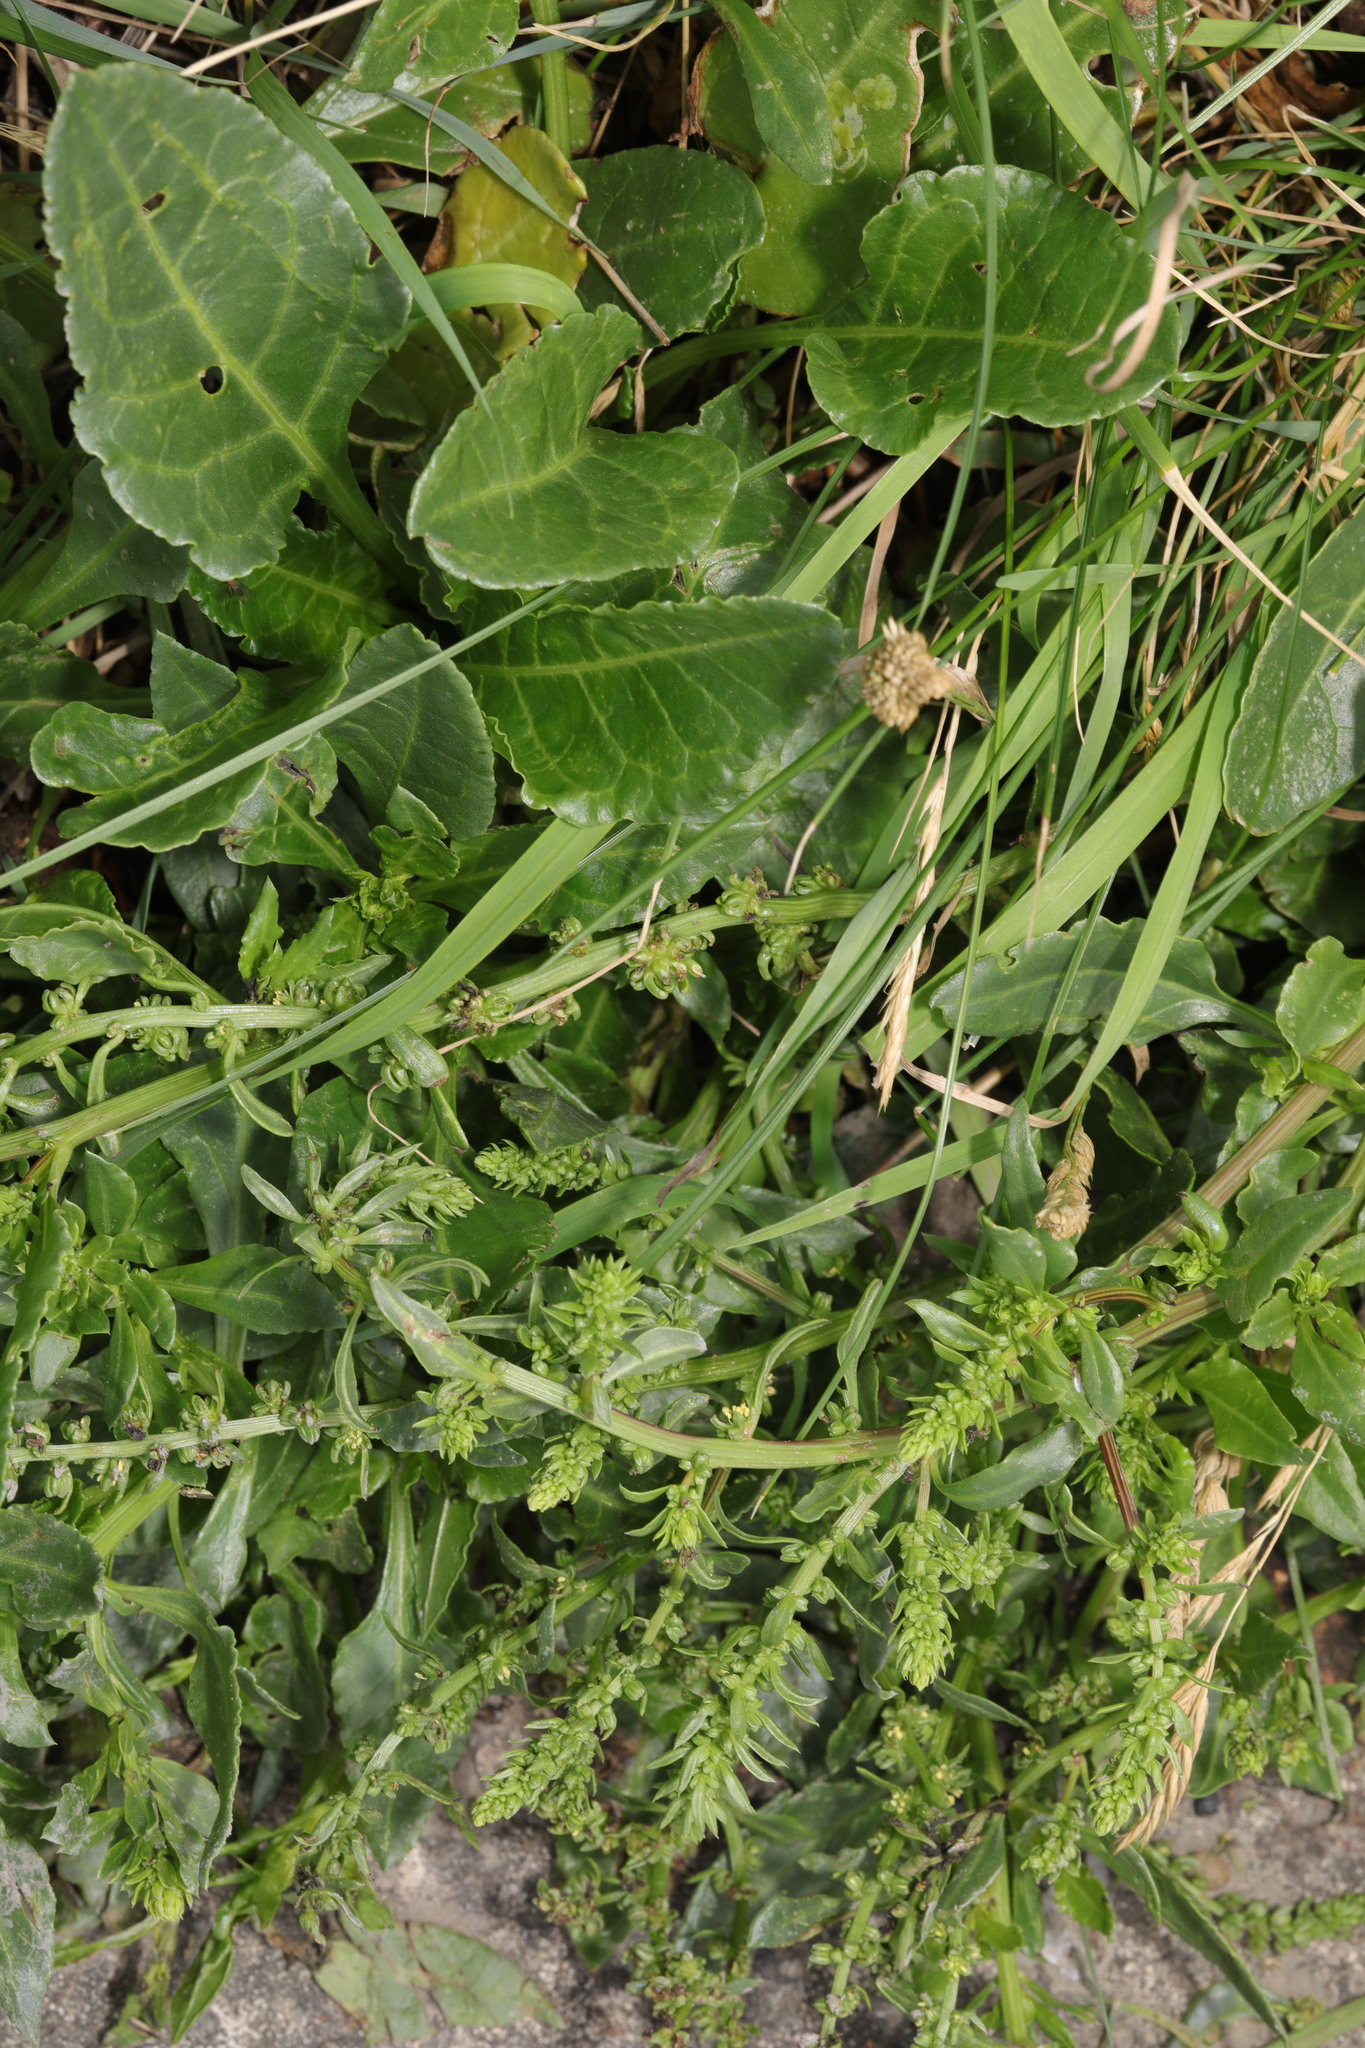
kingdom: Plantae
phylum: Tracheophyta
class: Magnoliopsida
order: Caryophyllales
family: Amaranthaceae
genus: Beta
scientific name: Beta vulgaris
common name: Beet
